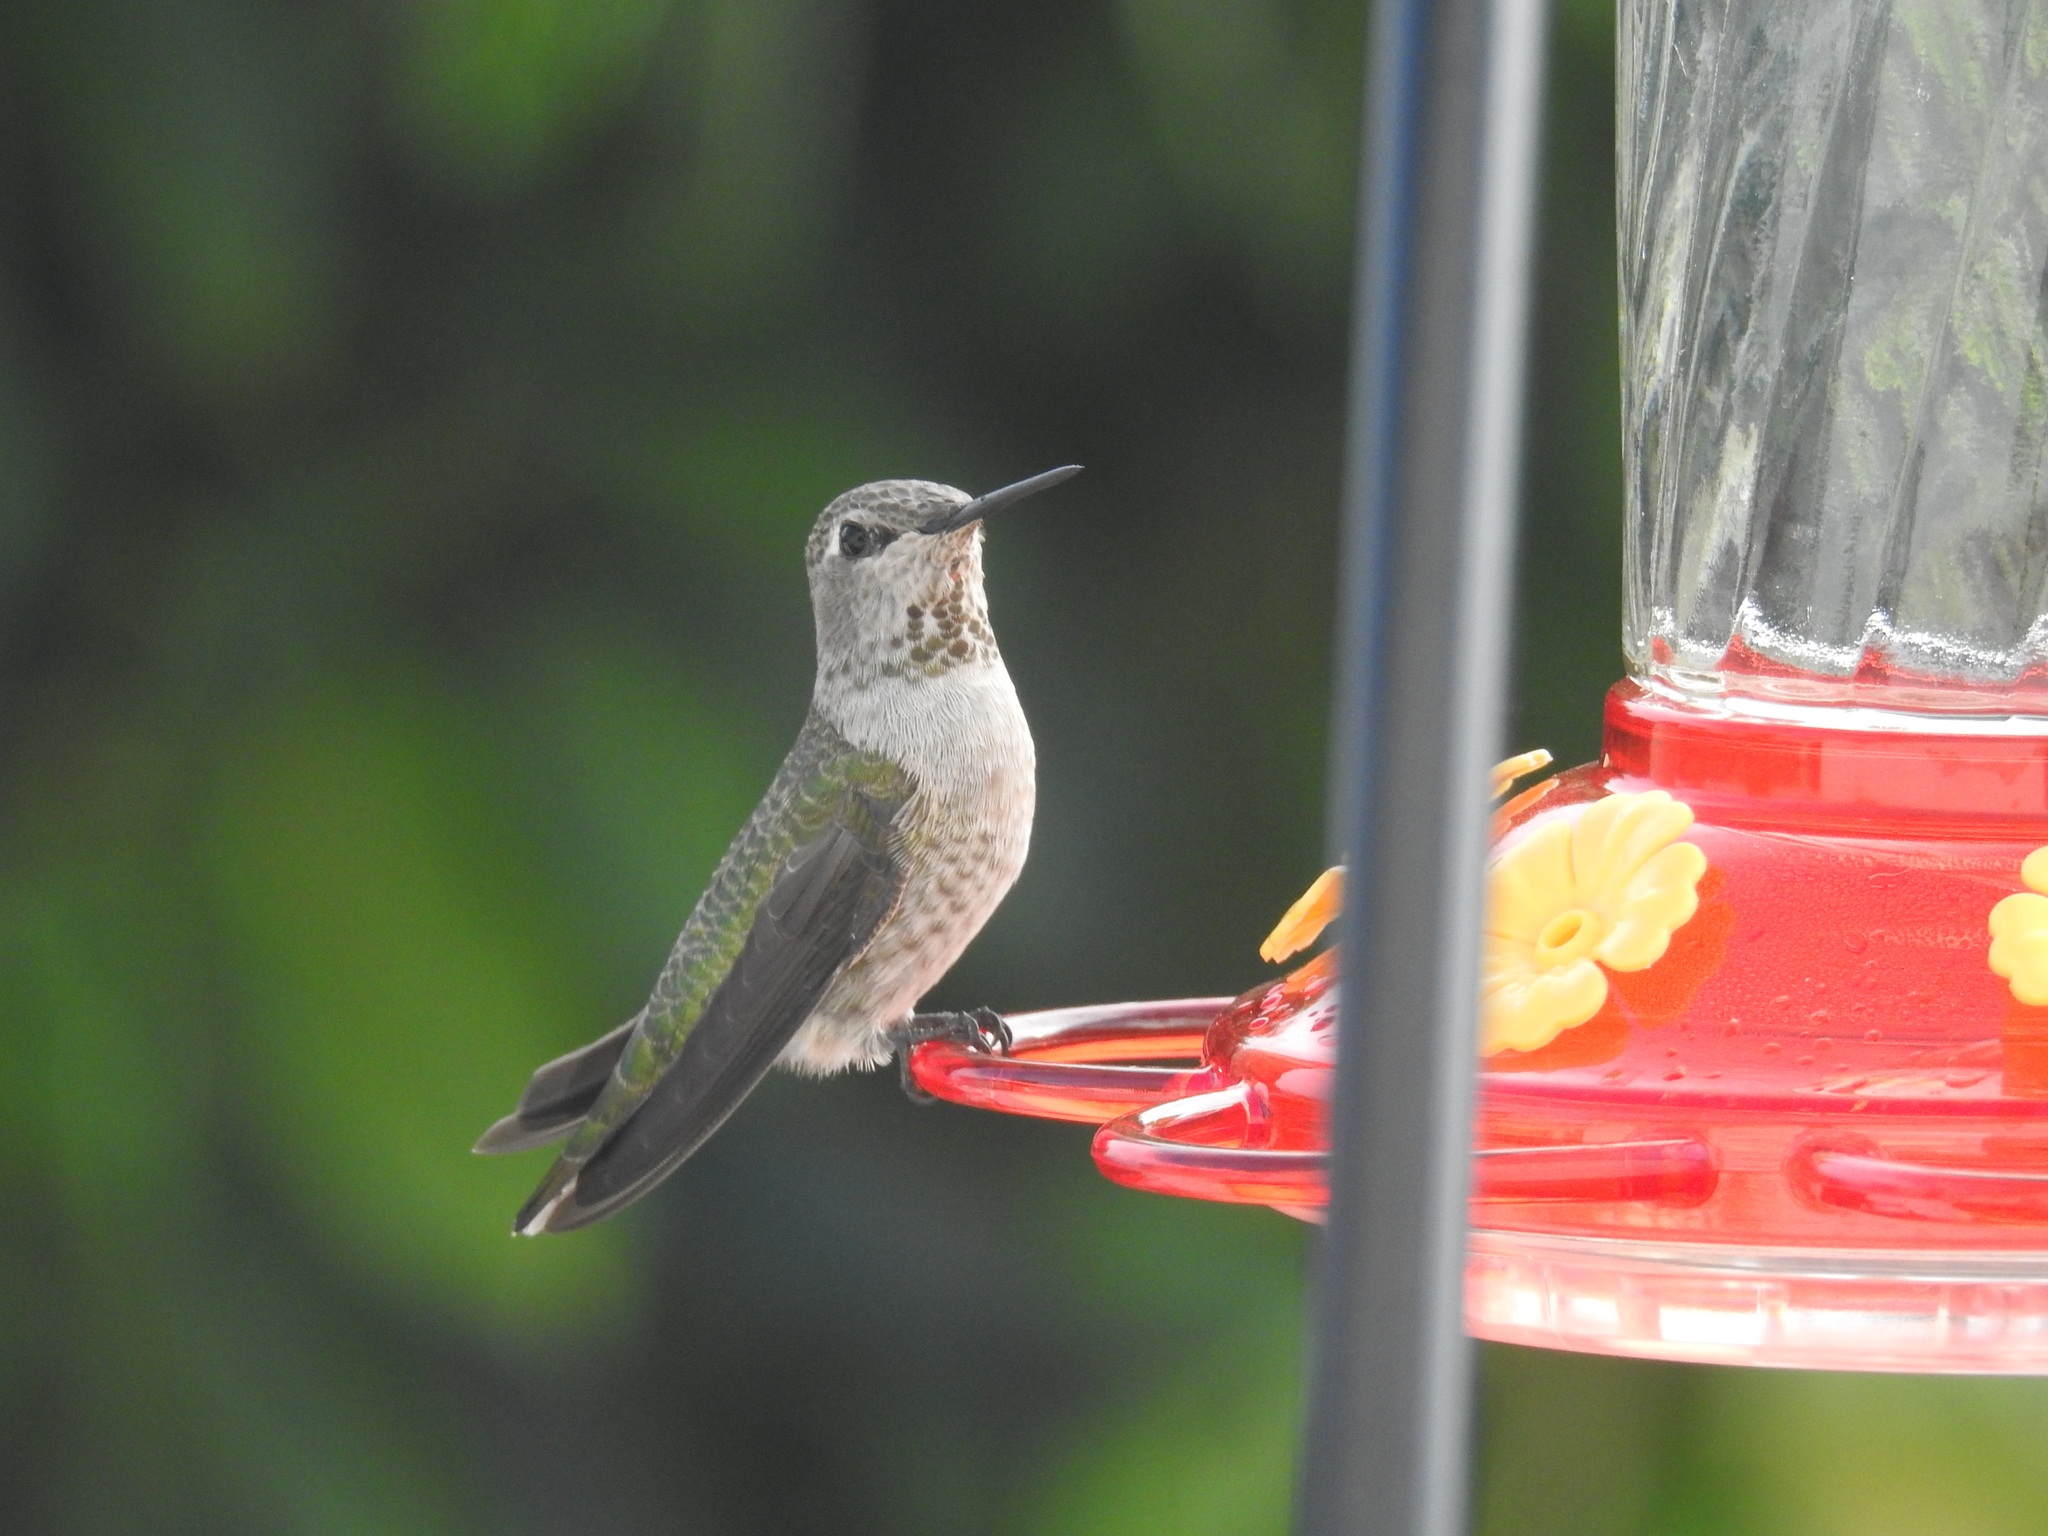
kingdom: Animalia
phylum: Chordata
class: Aves
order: Apodiformes
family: Trochilidae
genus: Calypte
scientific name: Calypte anna
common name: Anna's hummingbird
